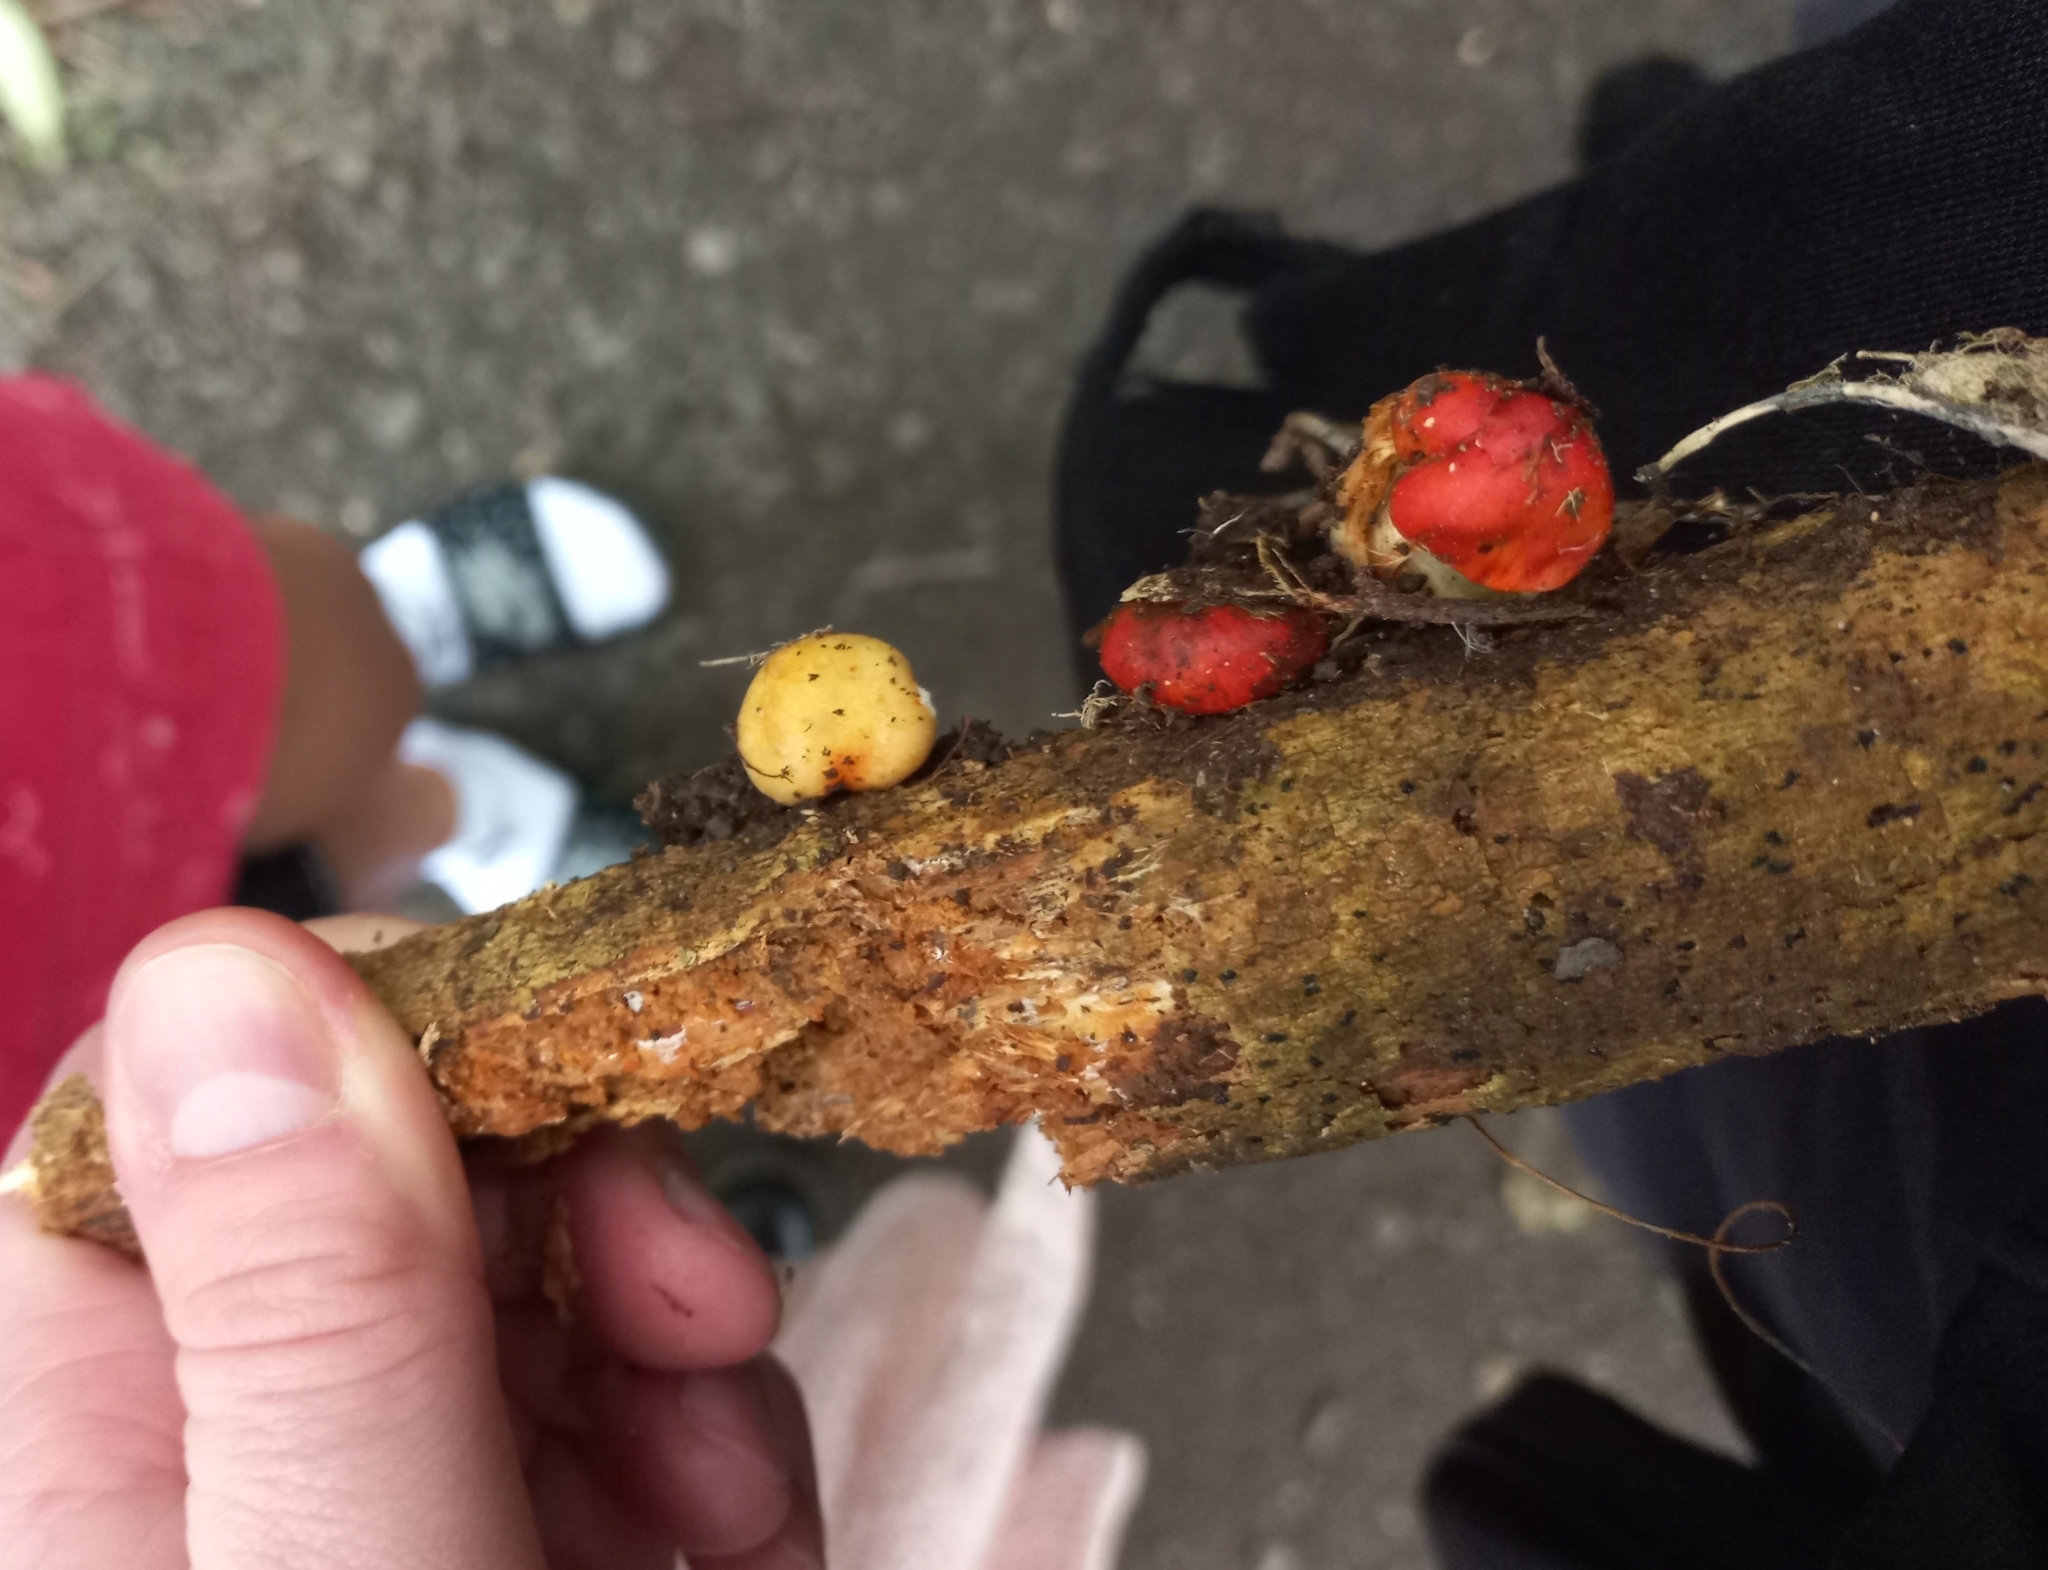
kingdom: Fungi
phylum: Basidiomycota
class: Agaricomycetes
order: Agaricales
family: Strophariaceae
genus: Leratiomyces
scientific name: Leratiomyces erythrocephalus
